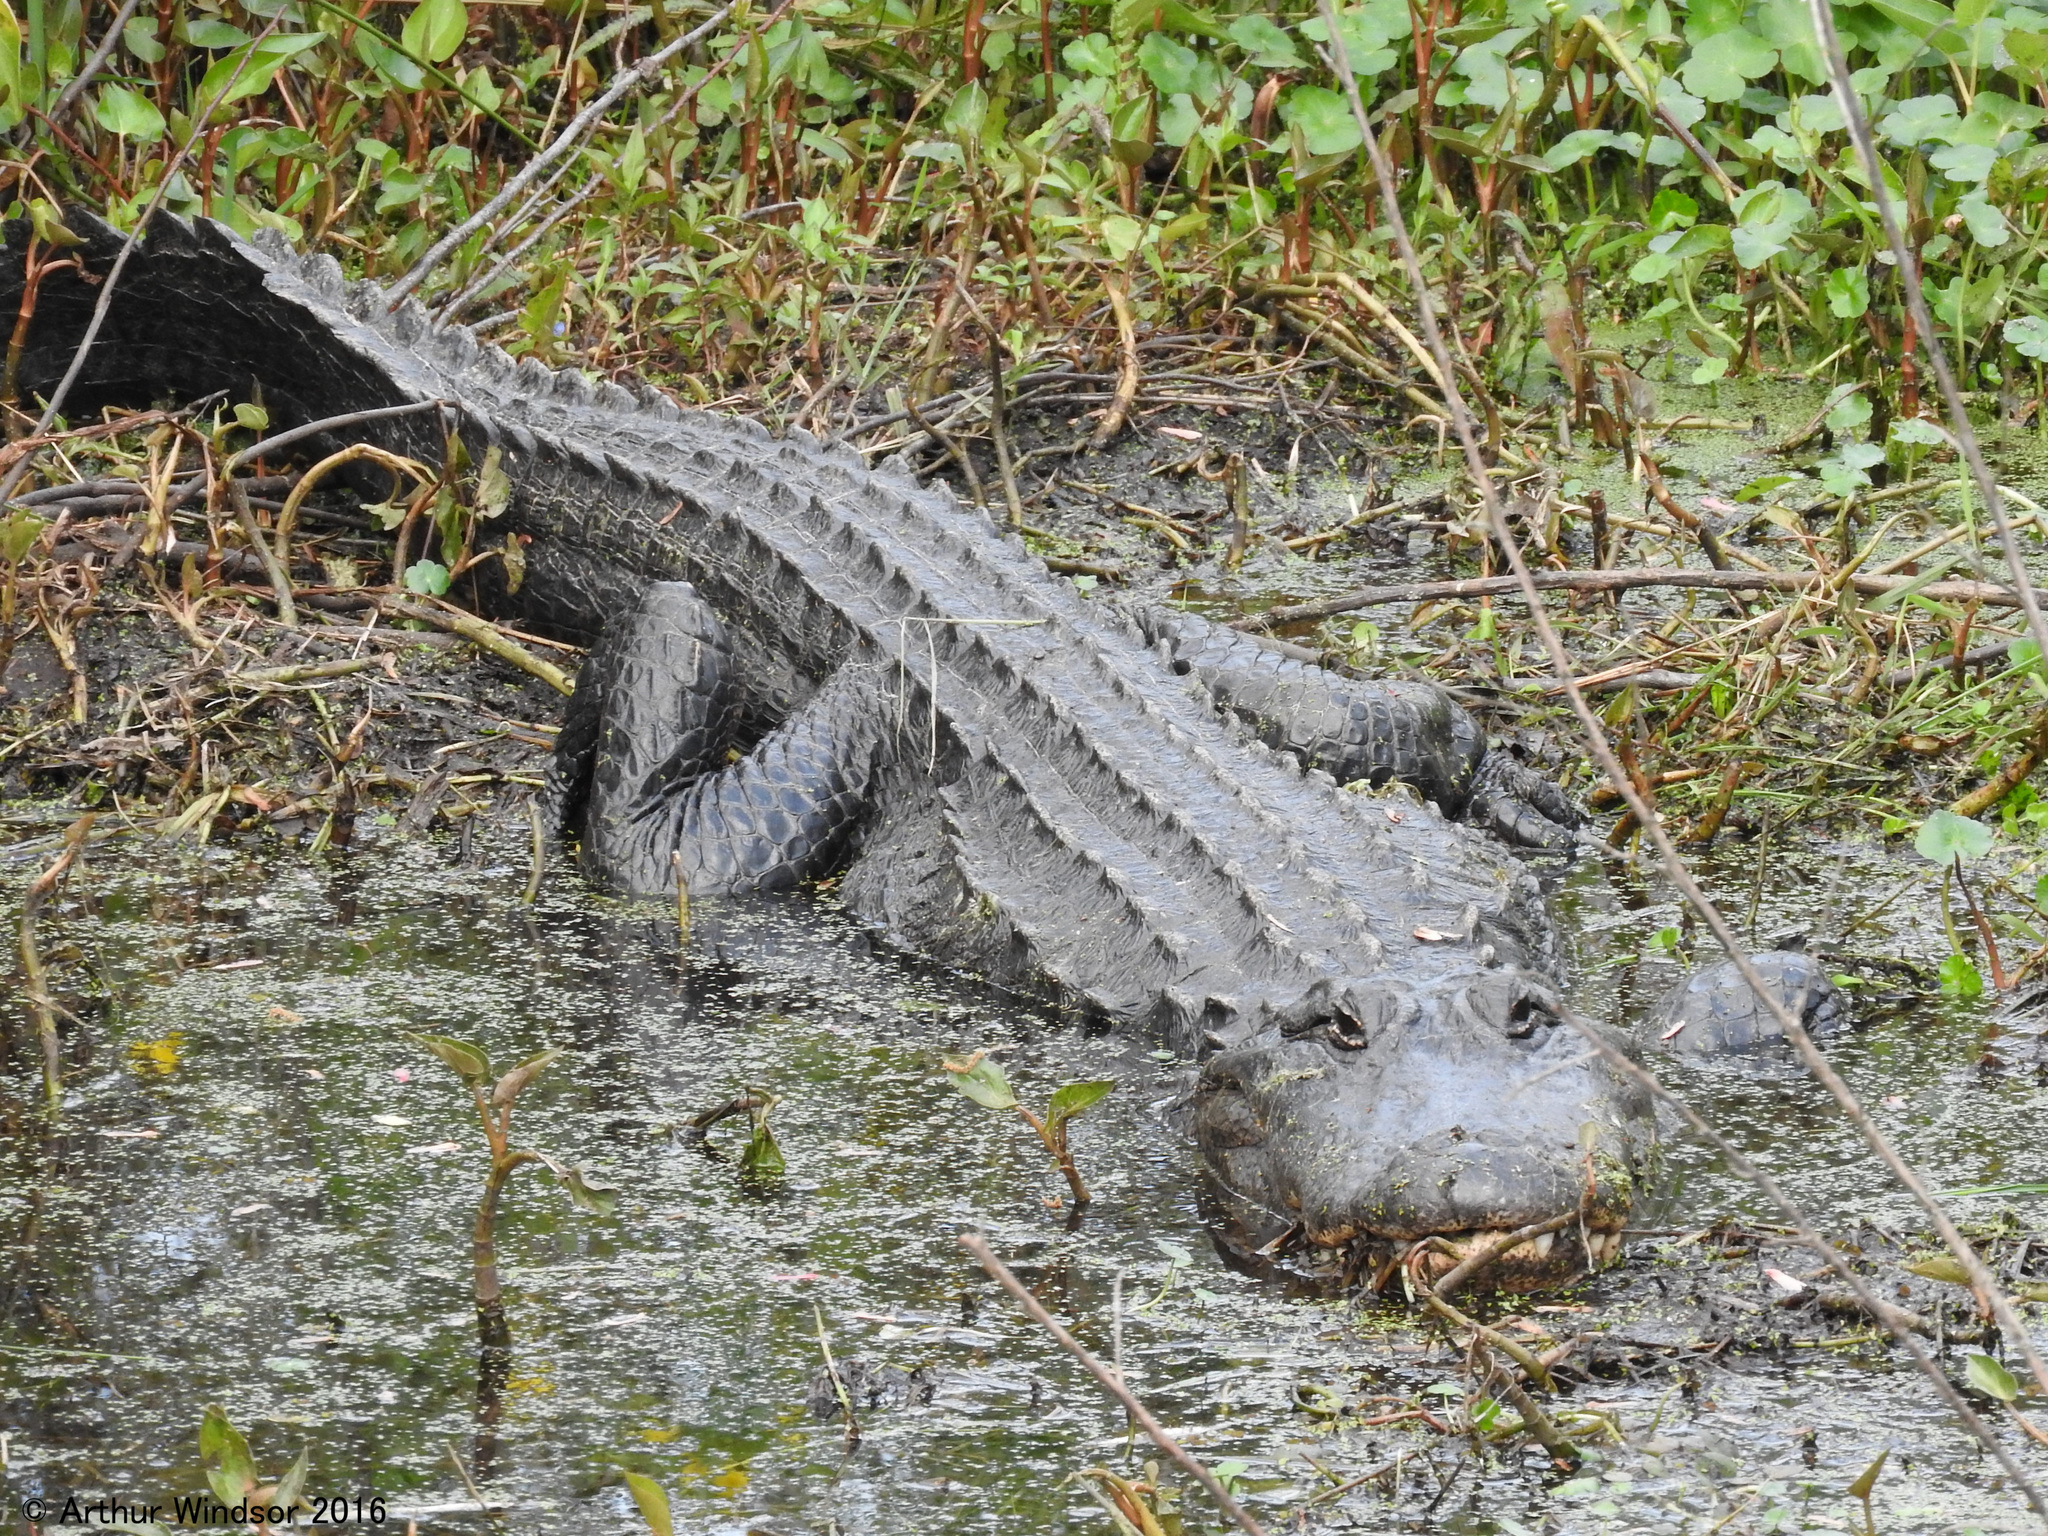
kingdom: Animalia
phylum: Chordata
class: Crocodylia
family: Alligatoridae
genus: Alligator
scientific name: Alligator mississippiensis
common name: American alligator
